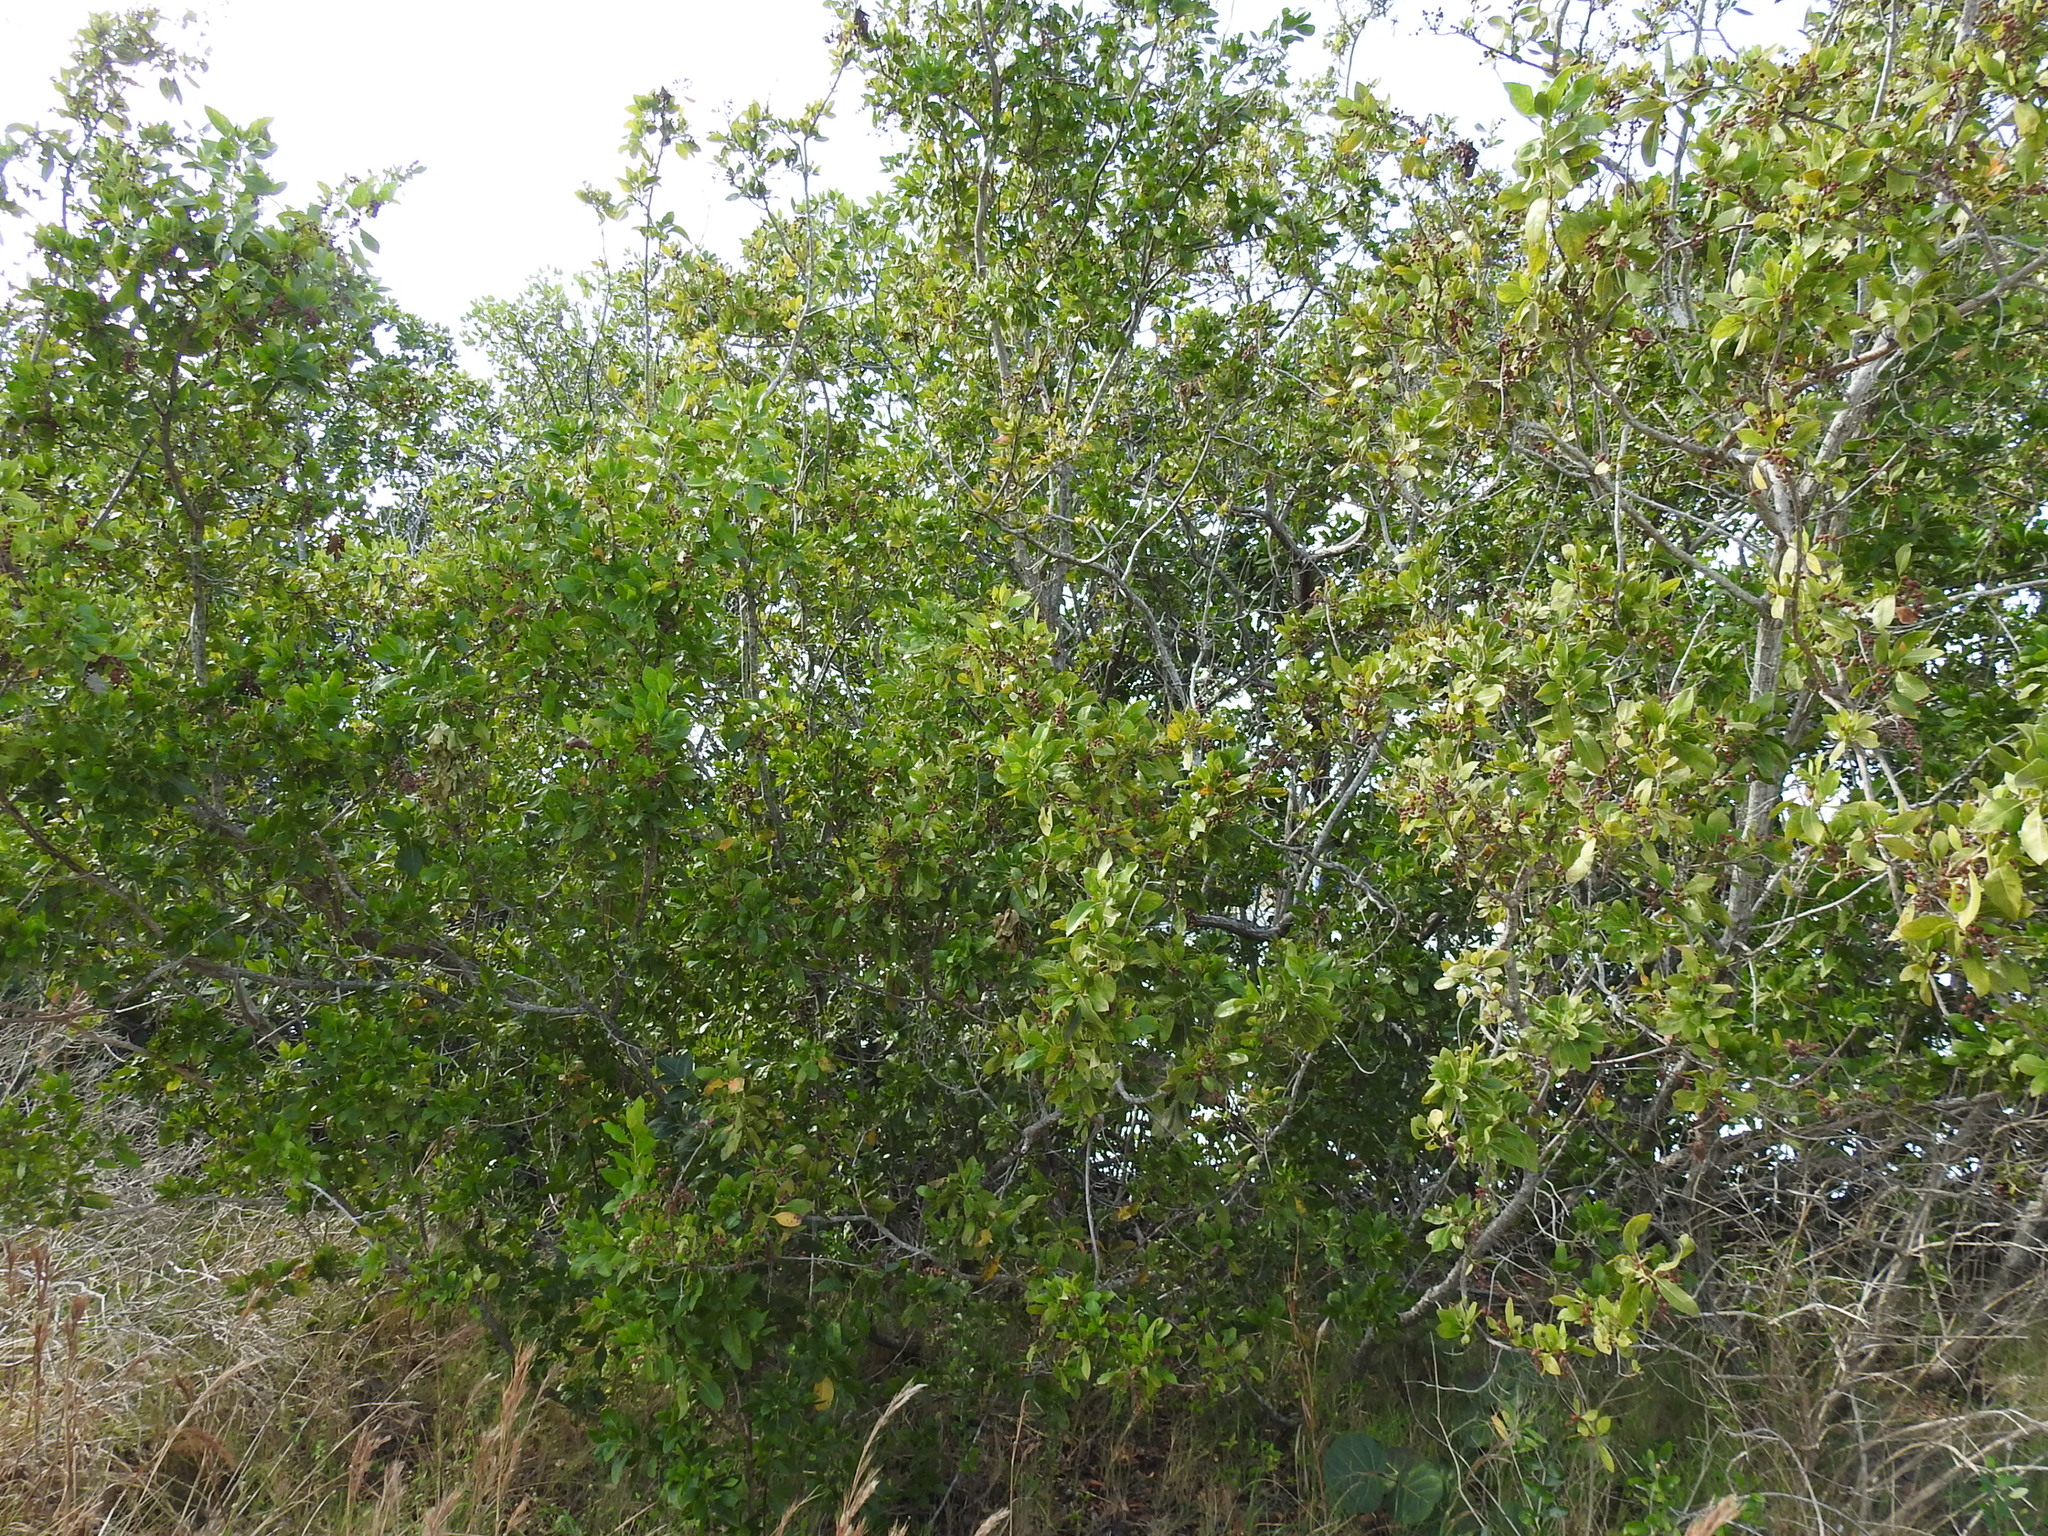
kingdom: Plantae
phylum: Tracheophyta
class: Magnoliopsida
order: Myrtales
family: Combretaceae
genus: Conocarpus
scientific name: Conocarpus erectus
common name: Button mangrove
